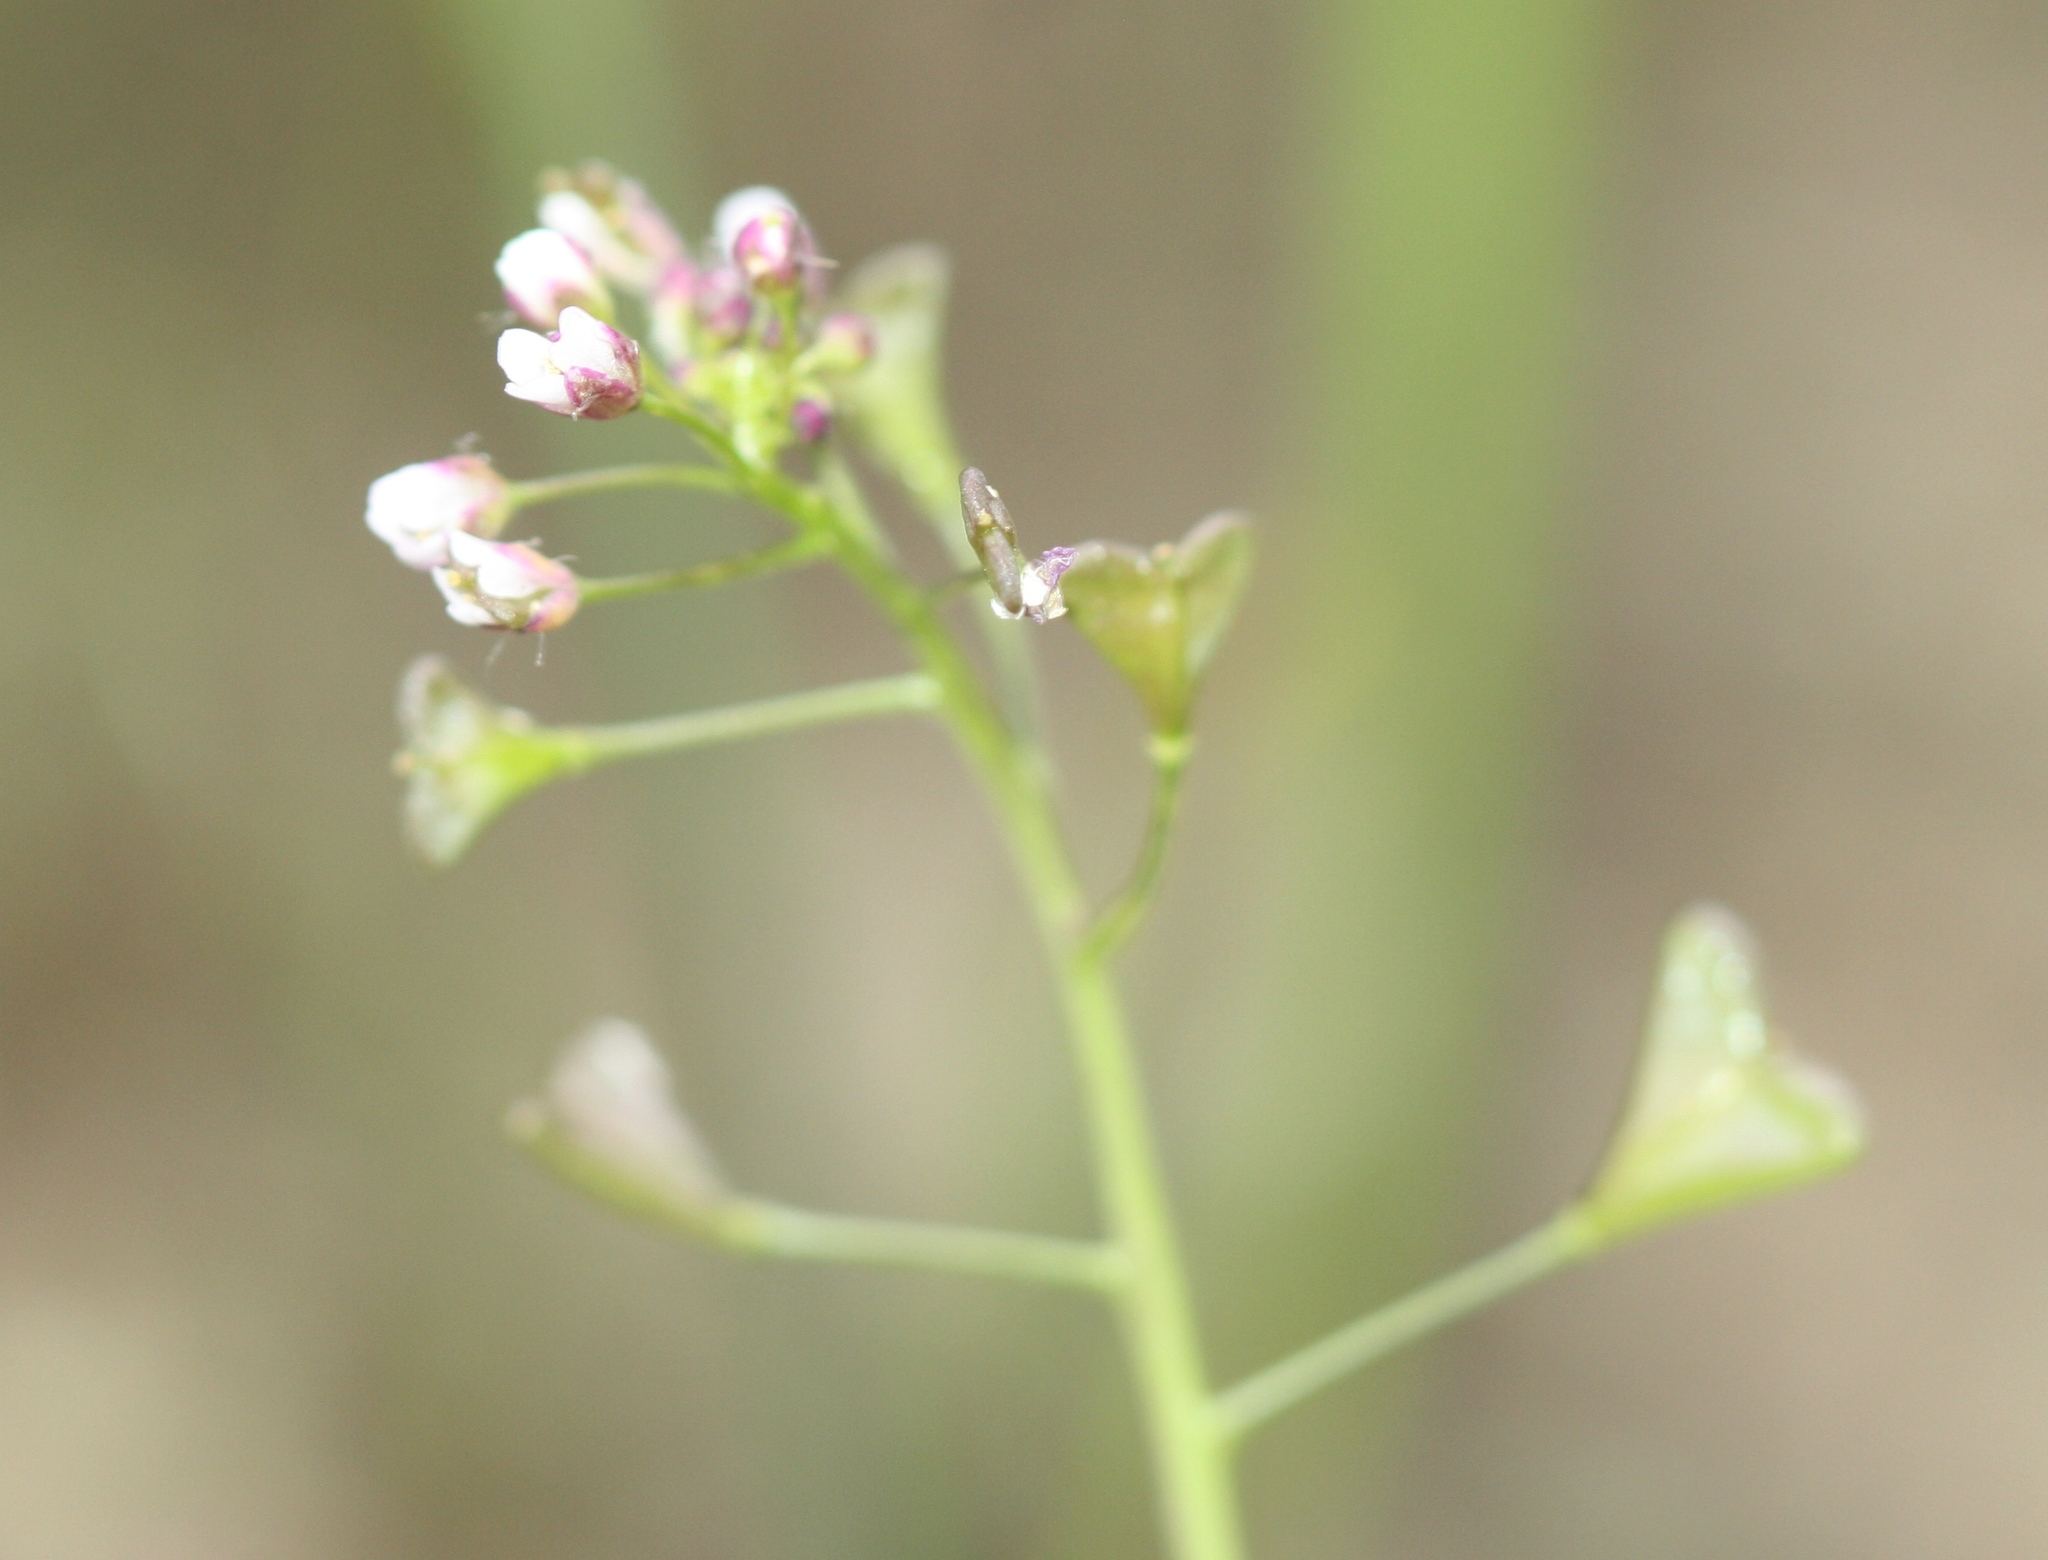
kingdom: Plantae
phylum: Tracheophyta
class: Magnoliopsida
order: Brassicales
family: Brassicaceae
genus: Capsella
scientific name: Capsella bursa-pastoris
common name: Shepherd's purse
